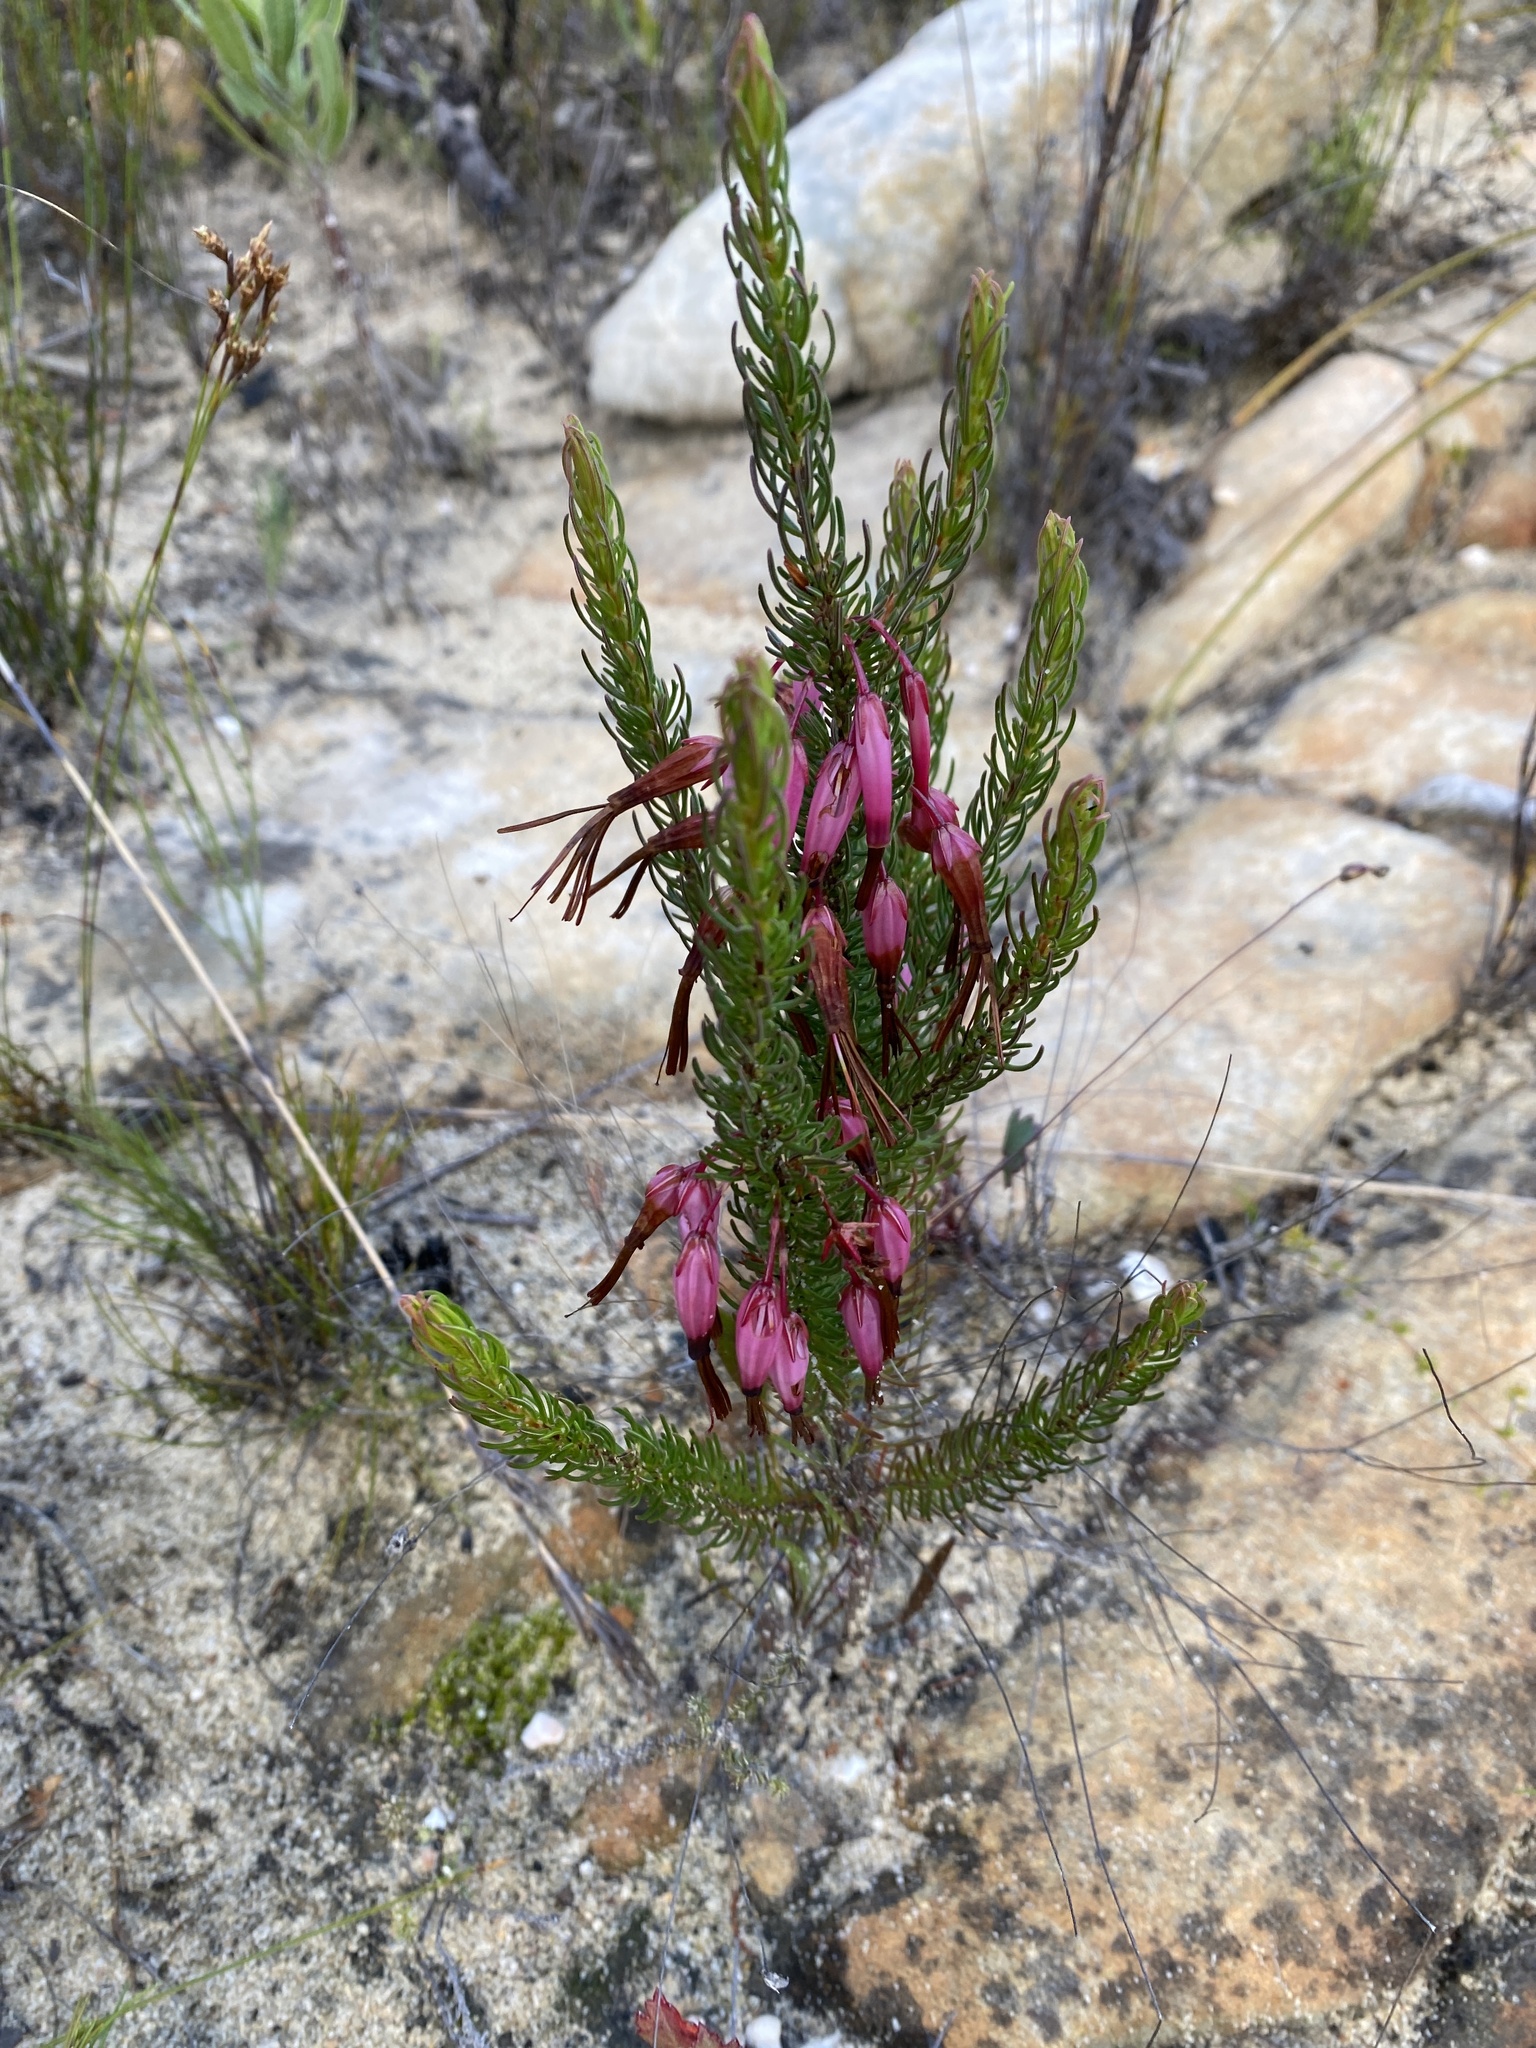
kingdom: Plantae
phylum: Tracheophyta
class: Magnoliopsida
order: Ericales
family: Ericaceae
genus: Erica
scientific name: Erica plukenetii
